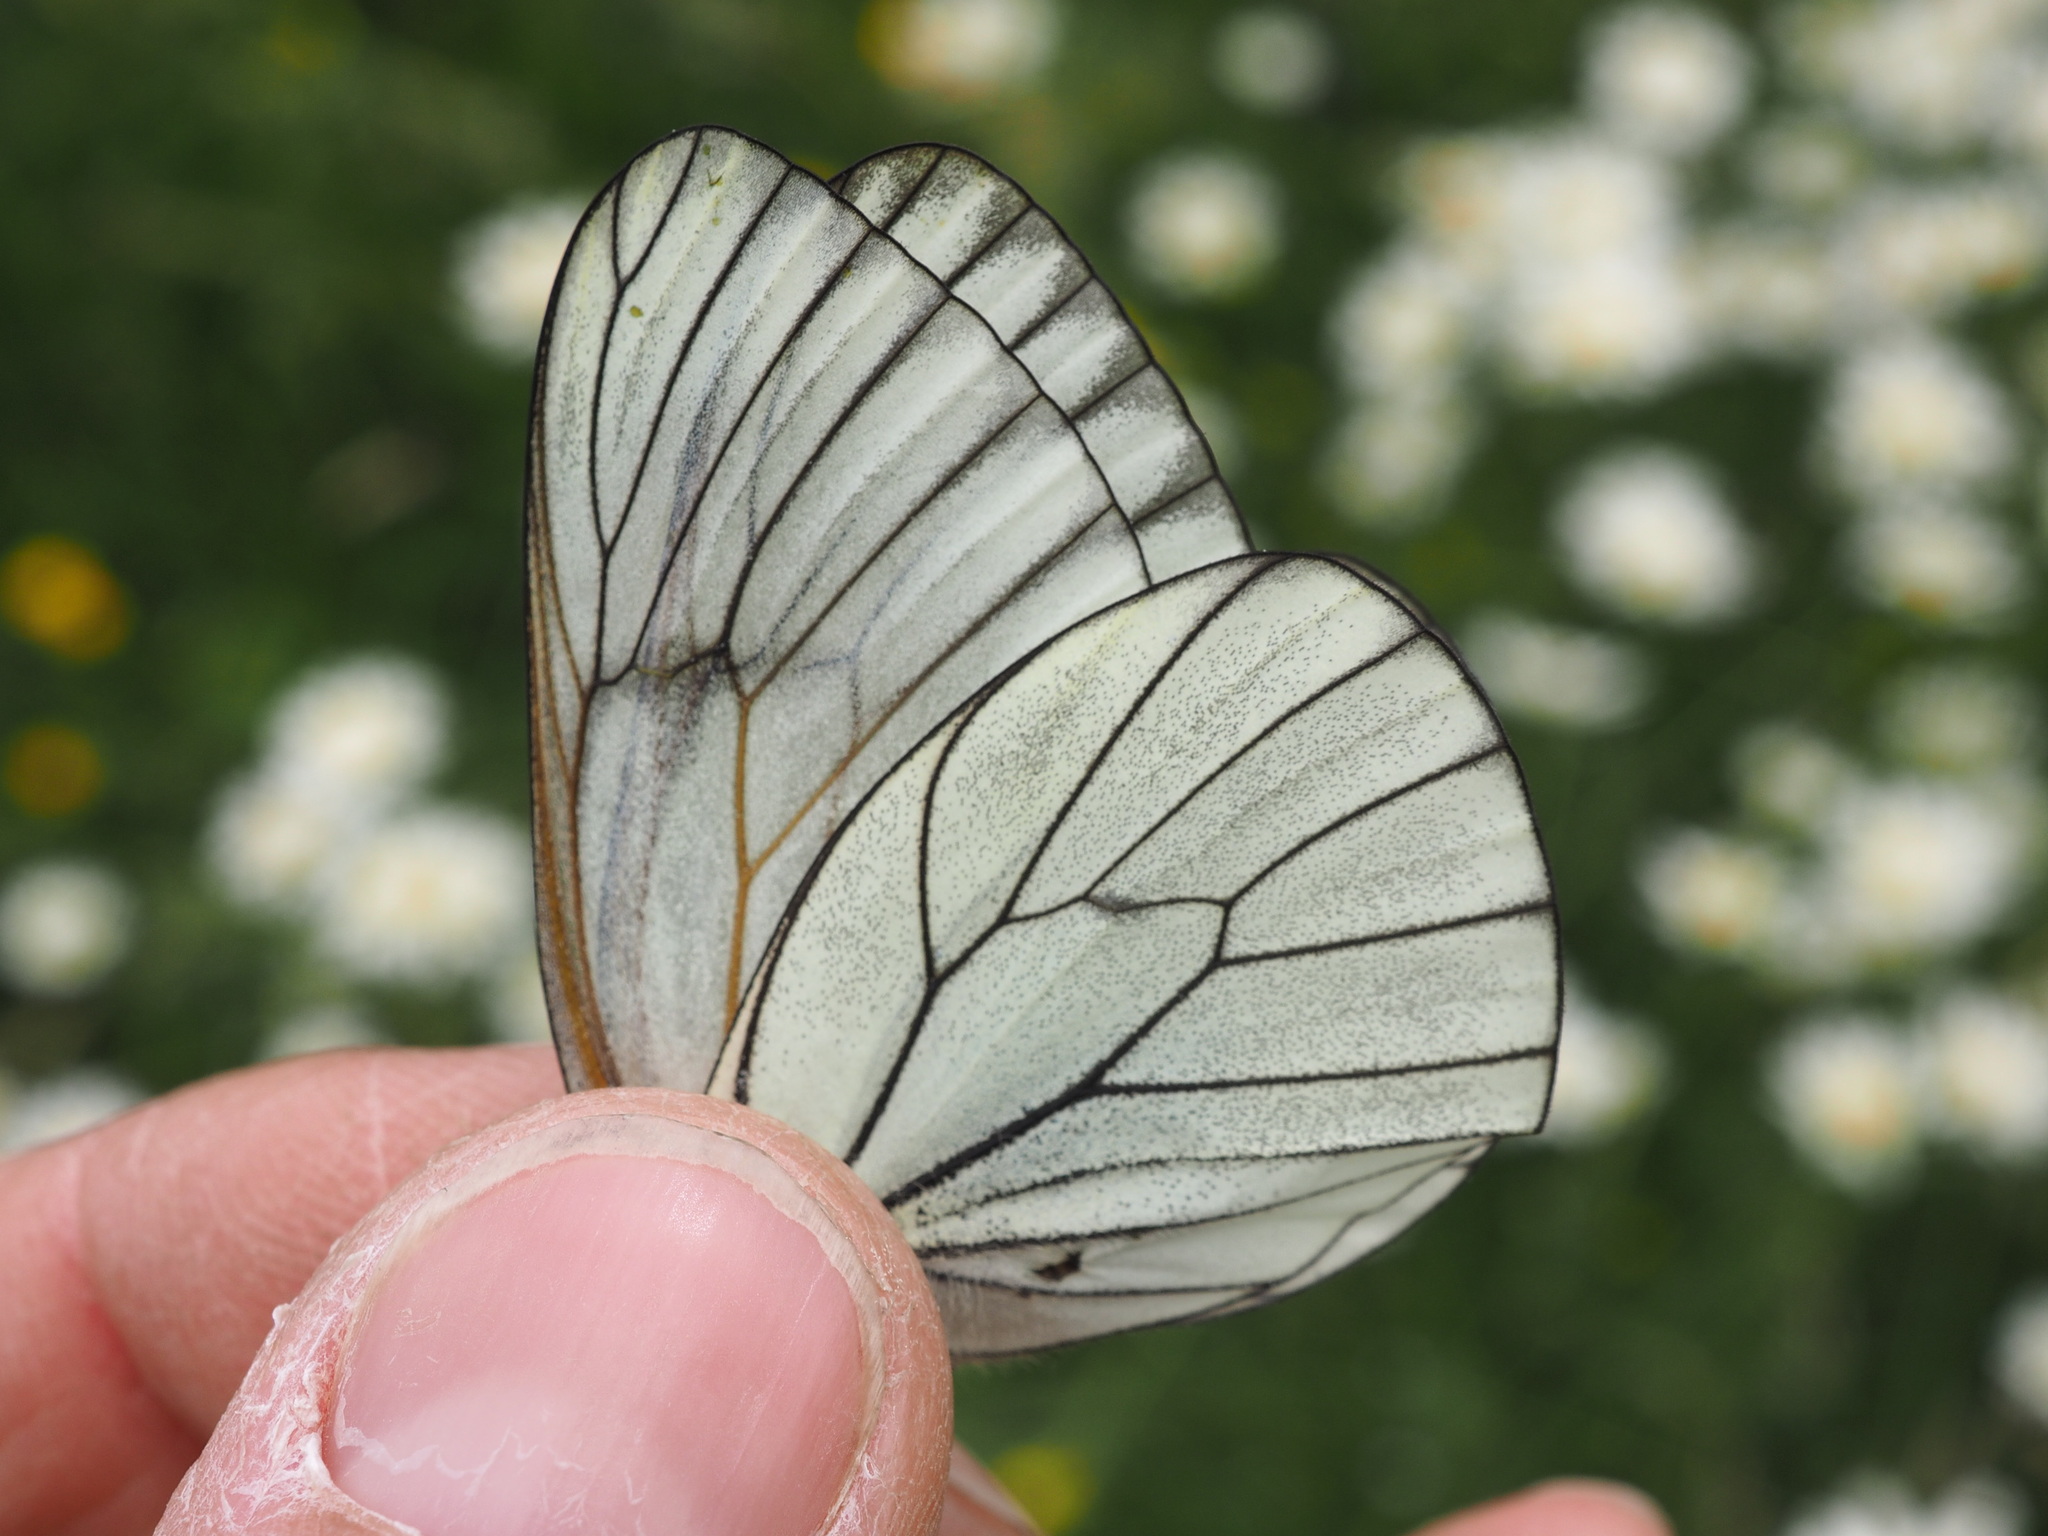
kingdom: Animalia
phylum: Arthropoda
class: Insecta
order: Lepidoptera
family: Pieridae
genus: Aporia
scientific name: Aporia crataegi
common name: Black-veined white
